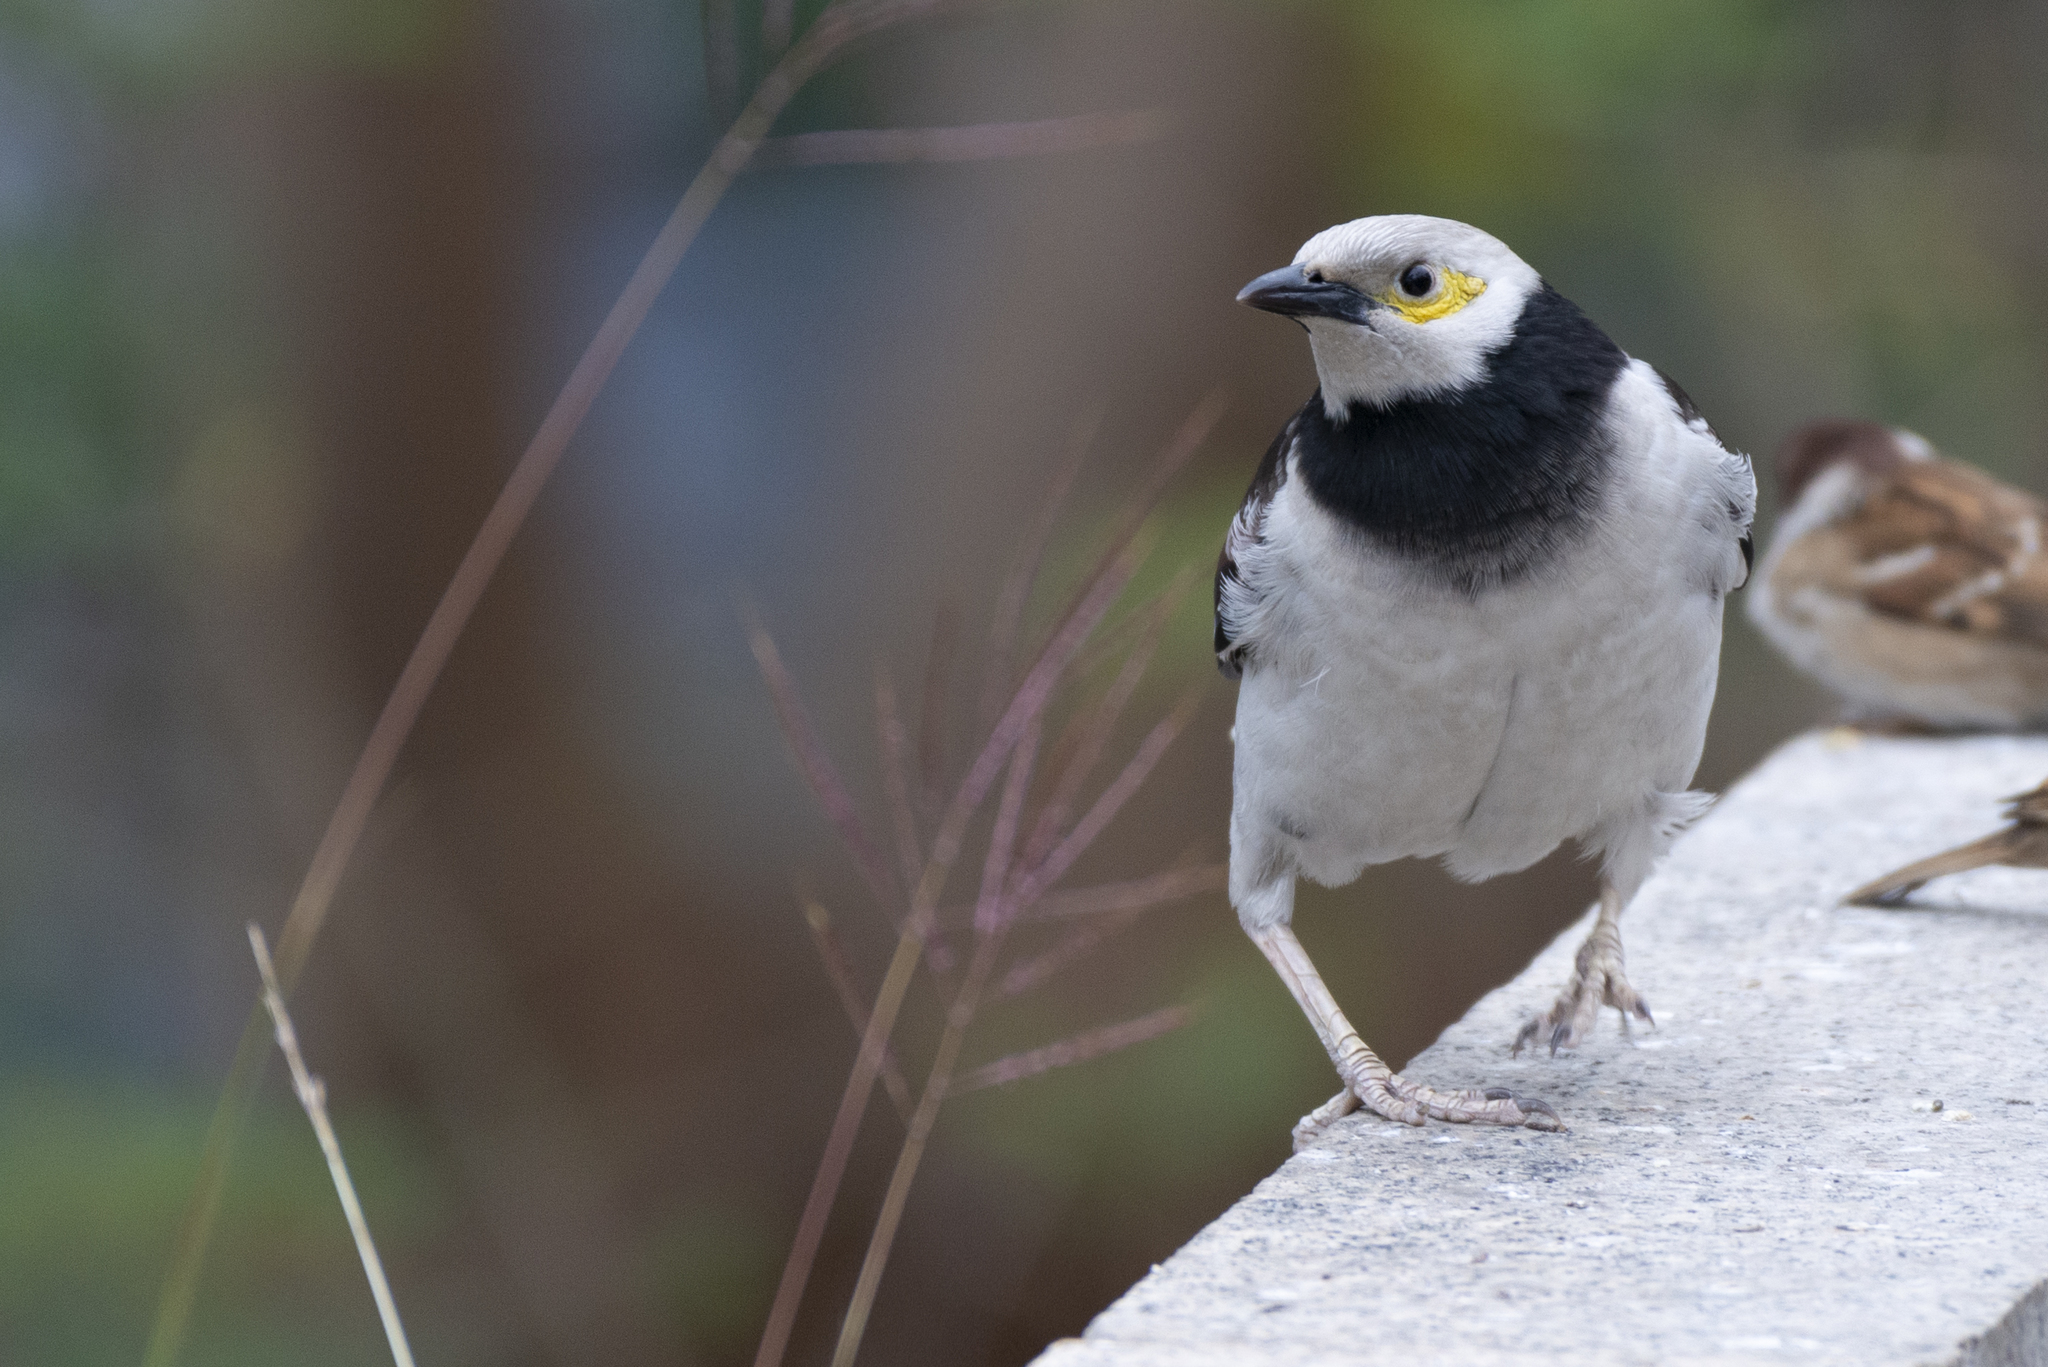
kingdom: Animalia
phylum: Chordata
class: Aves
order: Passeriformes
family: Sturnidae
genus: Gracupica
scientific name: Gracupica nigricollis
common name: Black-collared starling
